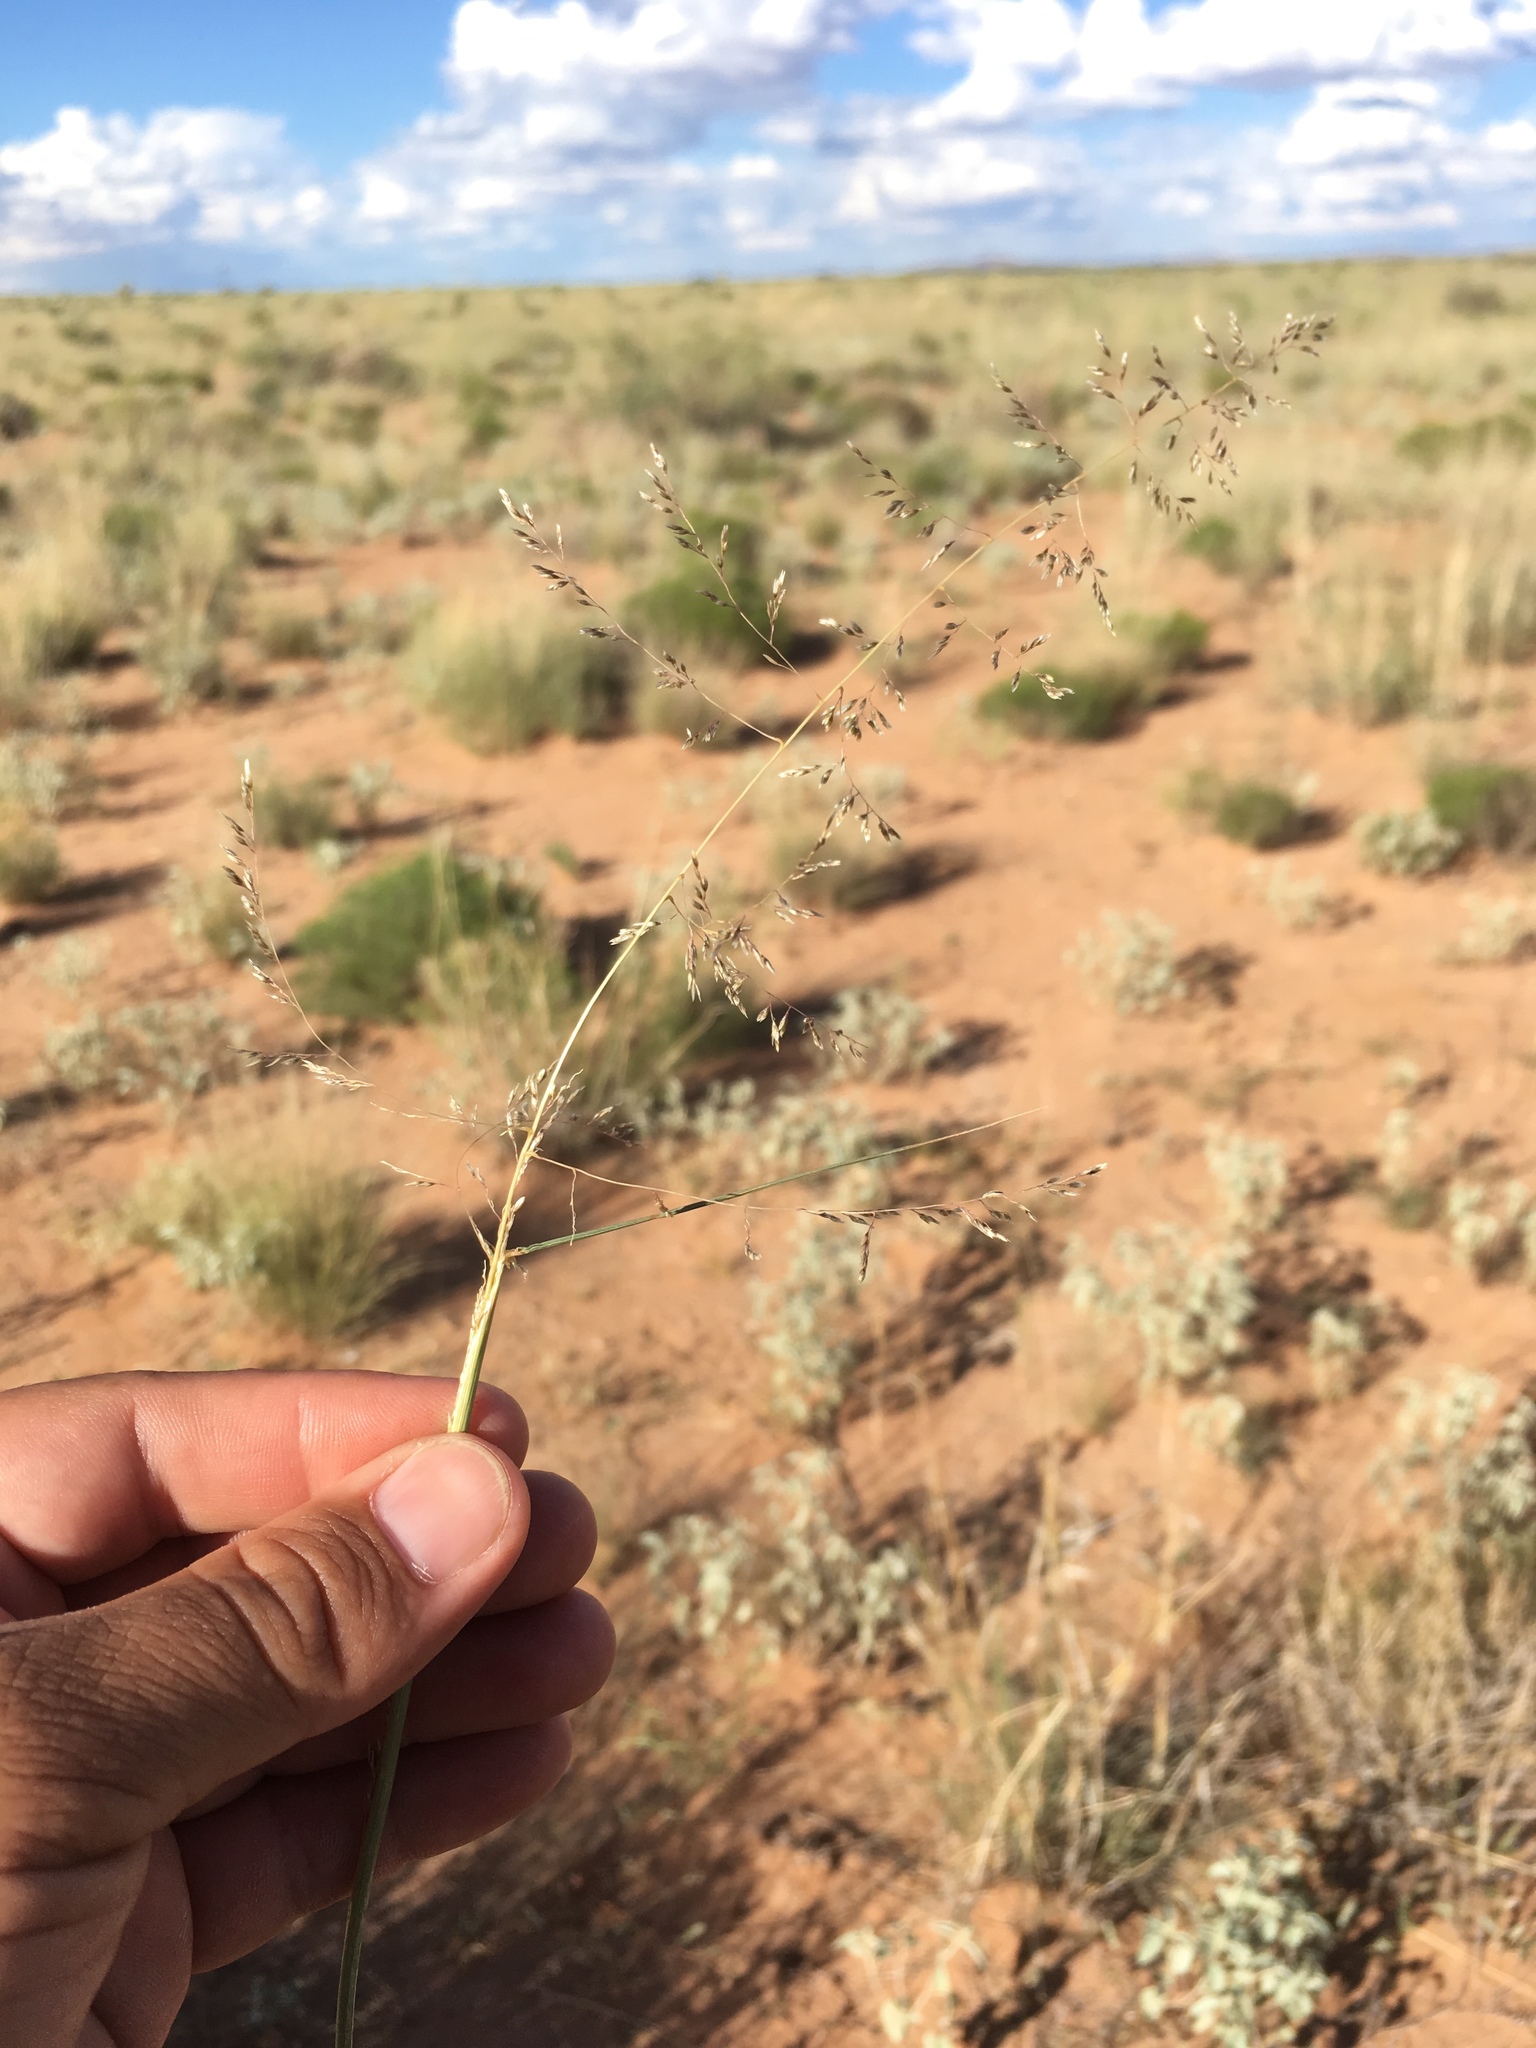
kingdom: Plantae
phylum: Tracheophyta
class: Liliopsida
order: Poales
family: Poaceae
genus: Sporobolus
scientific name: Sporobolus flexuosus
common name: Mesa dropseed
